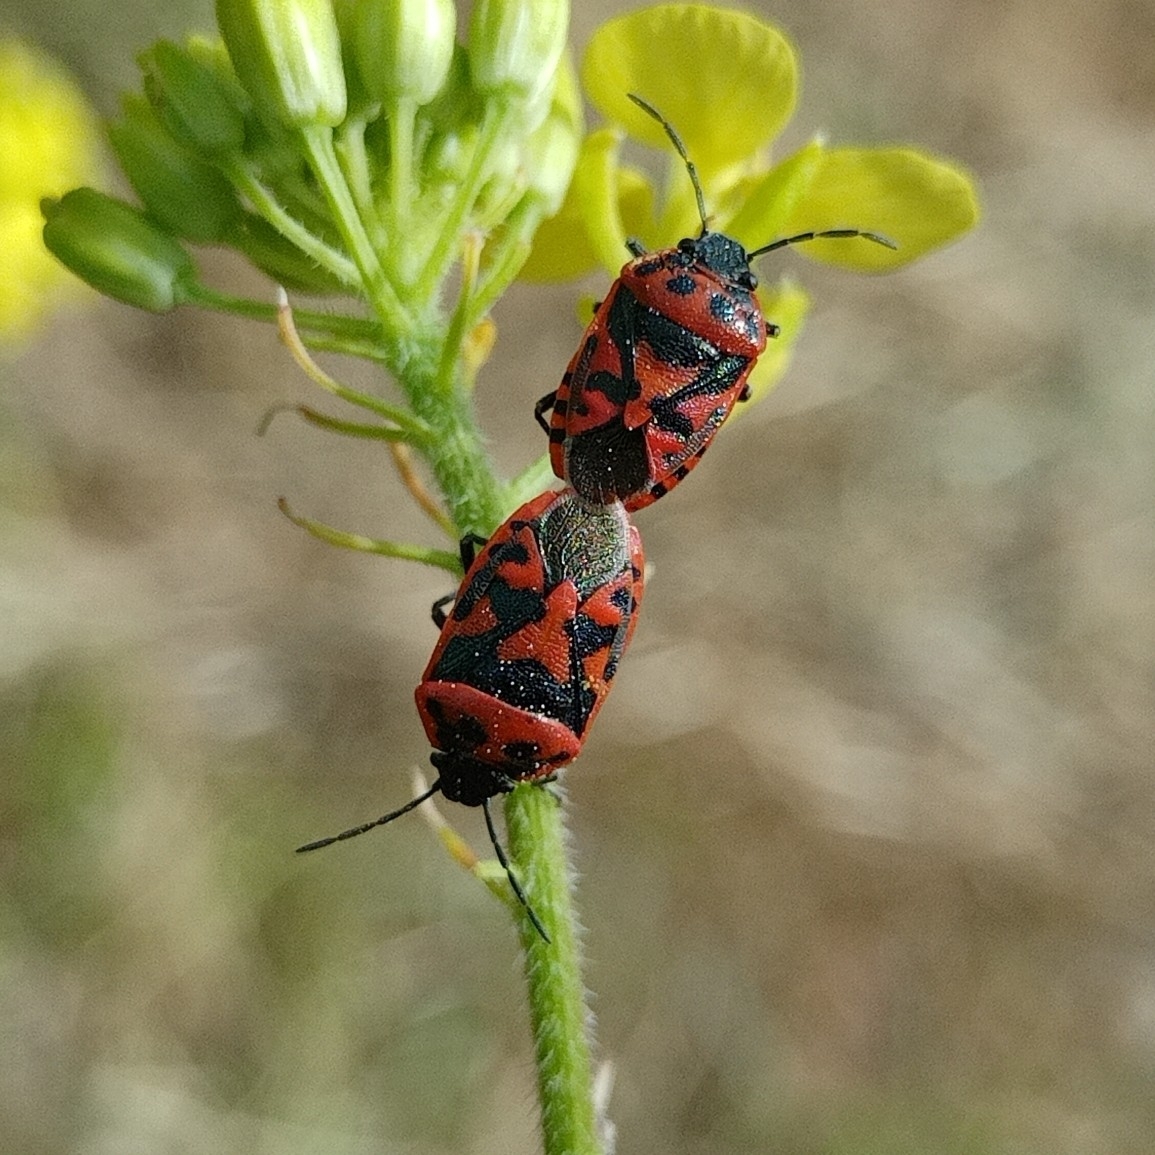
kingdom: Animalia
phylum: Arthropoda
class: Insecta
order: Hemiptera
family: Pentatomidae
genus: Eurydema
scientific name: Eurydema ornata
